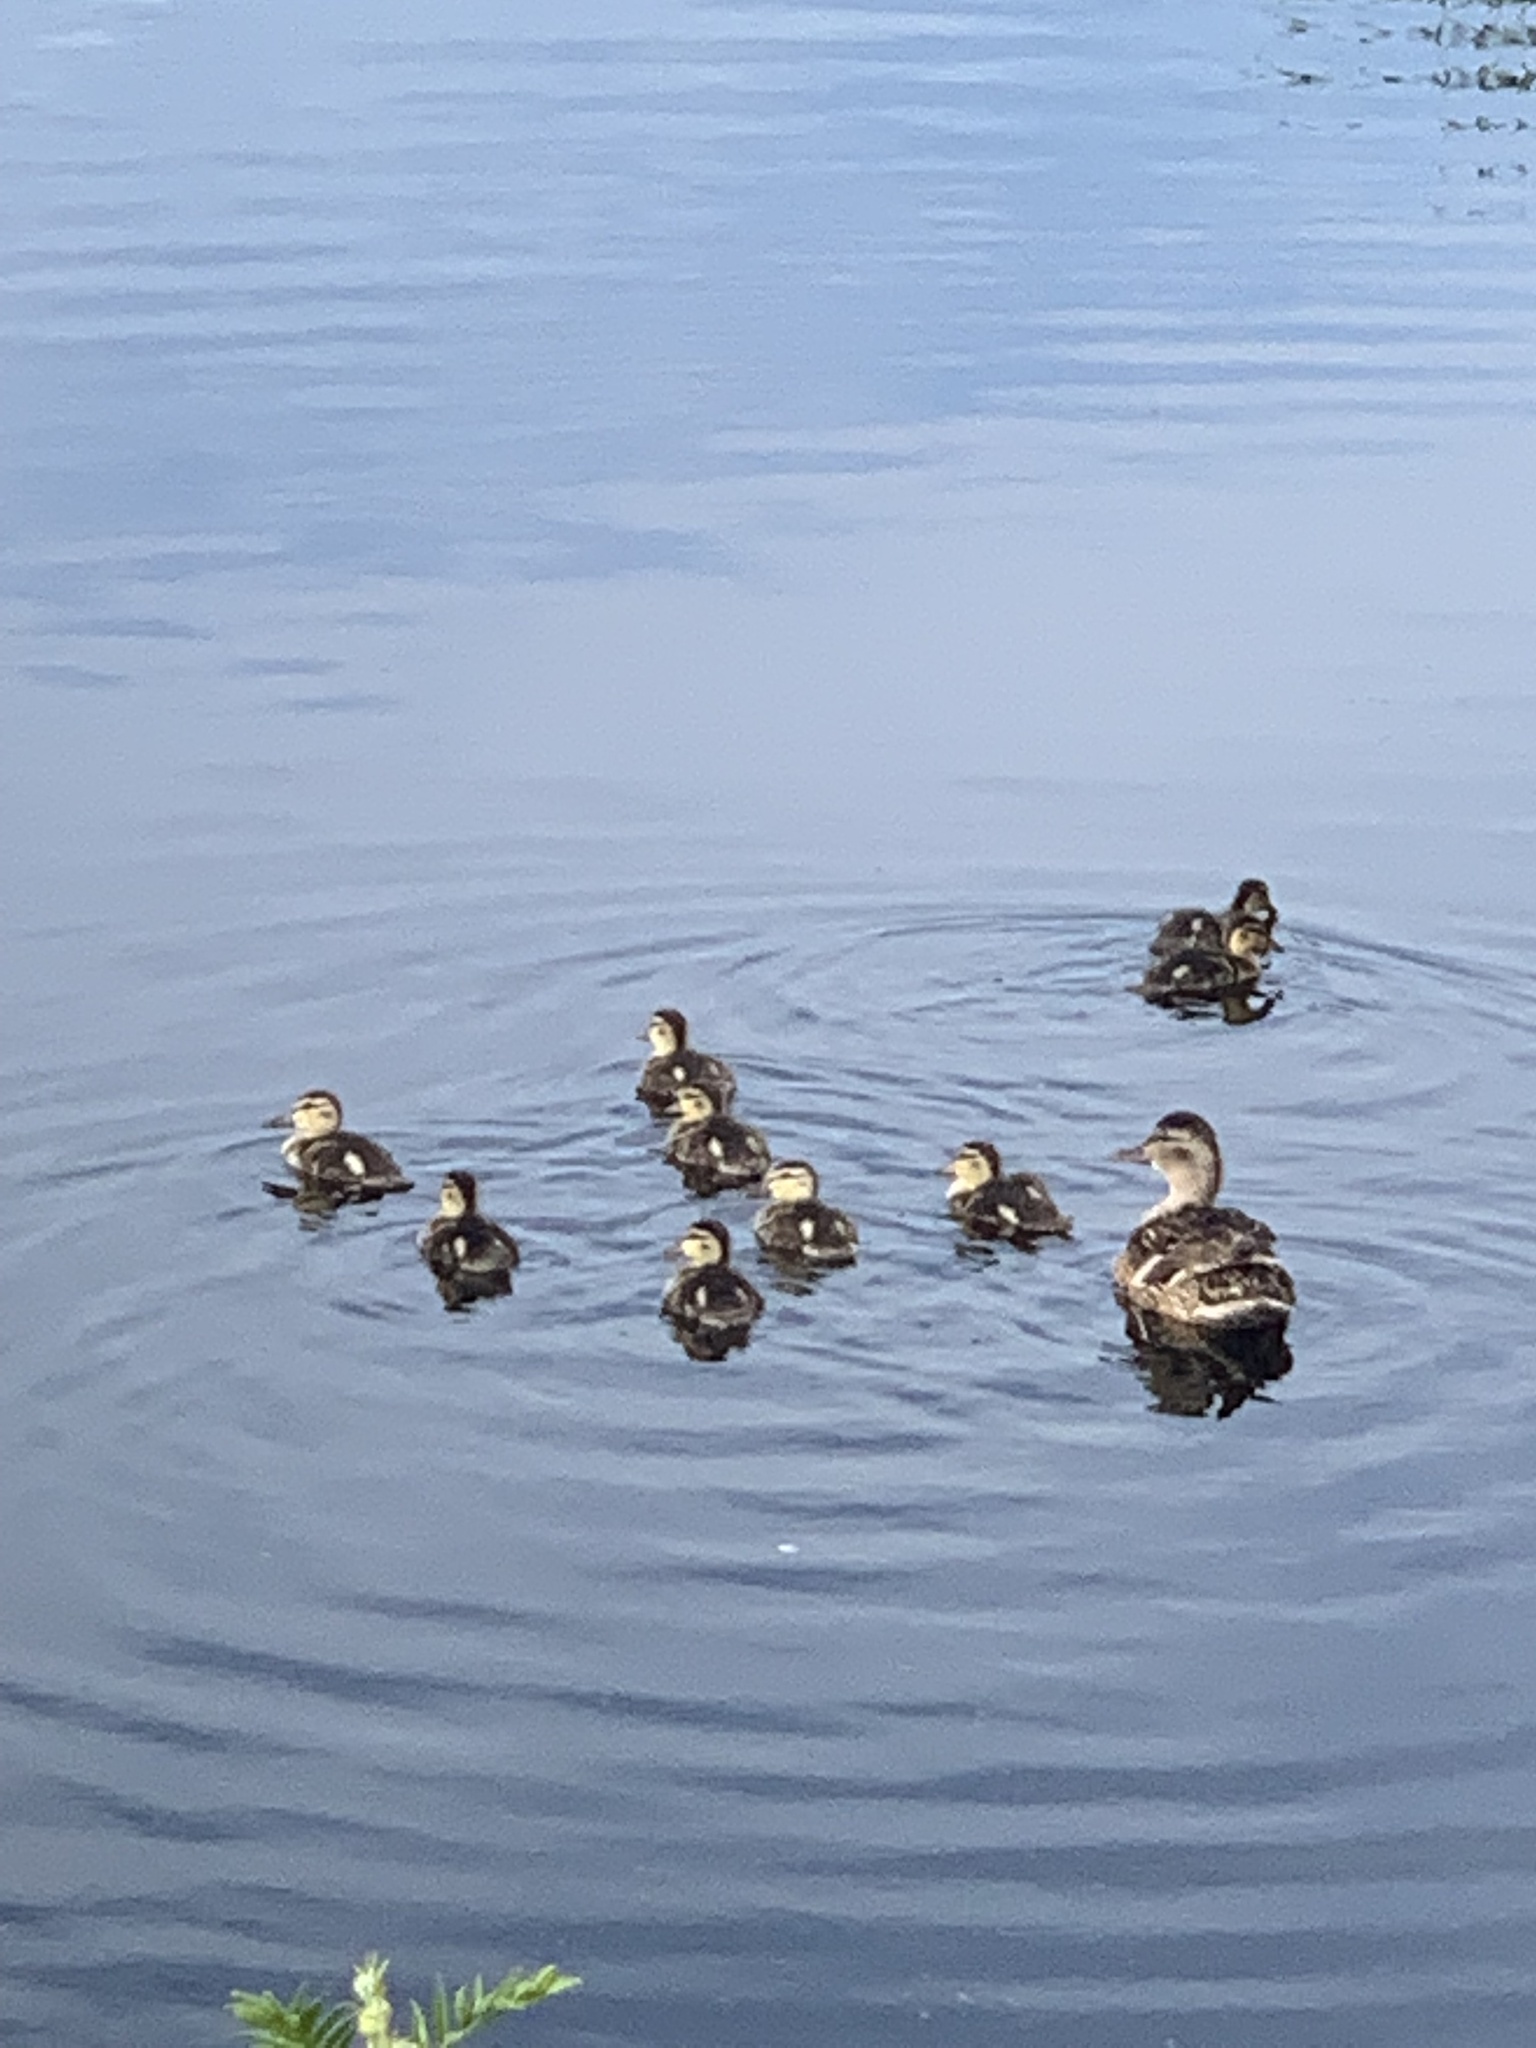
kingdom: Animalia
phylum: Chordata
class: Aves
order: Anseriformes
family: Anatidae
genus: Anas
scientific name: Anas platyrhynchos
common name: Mallard
